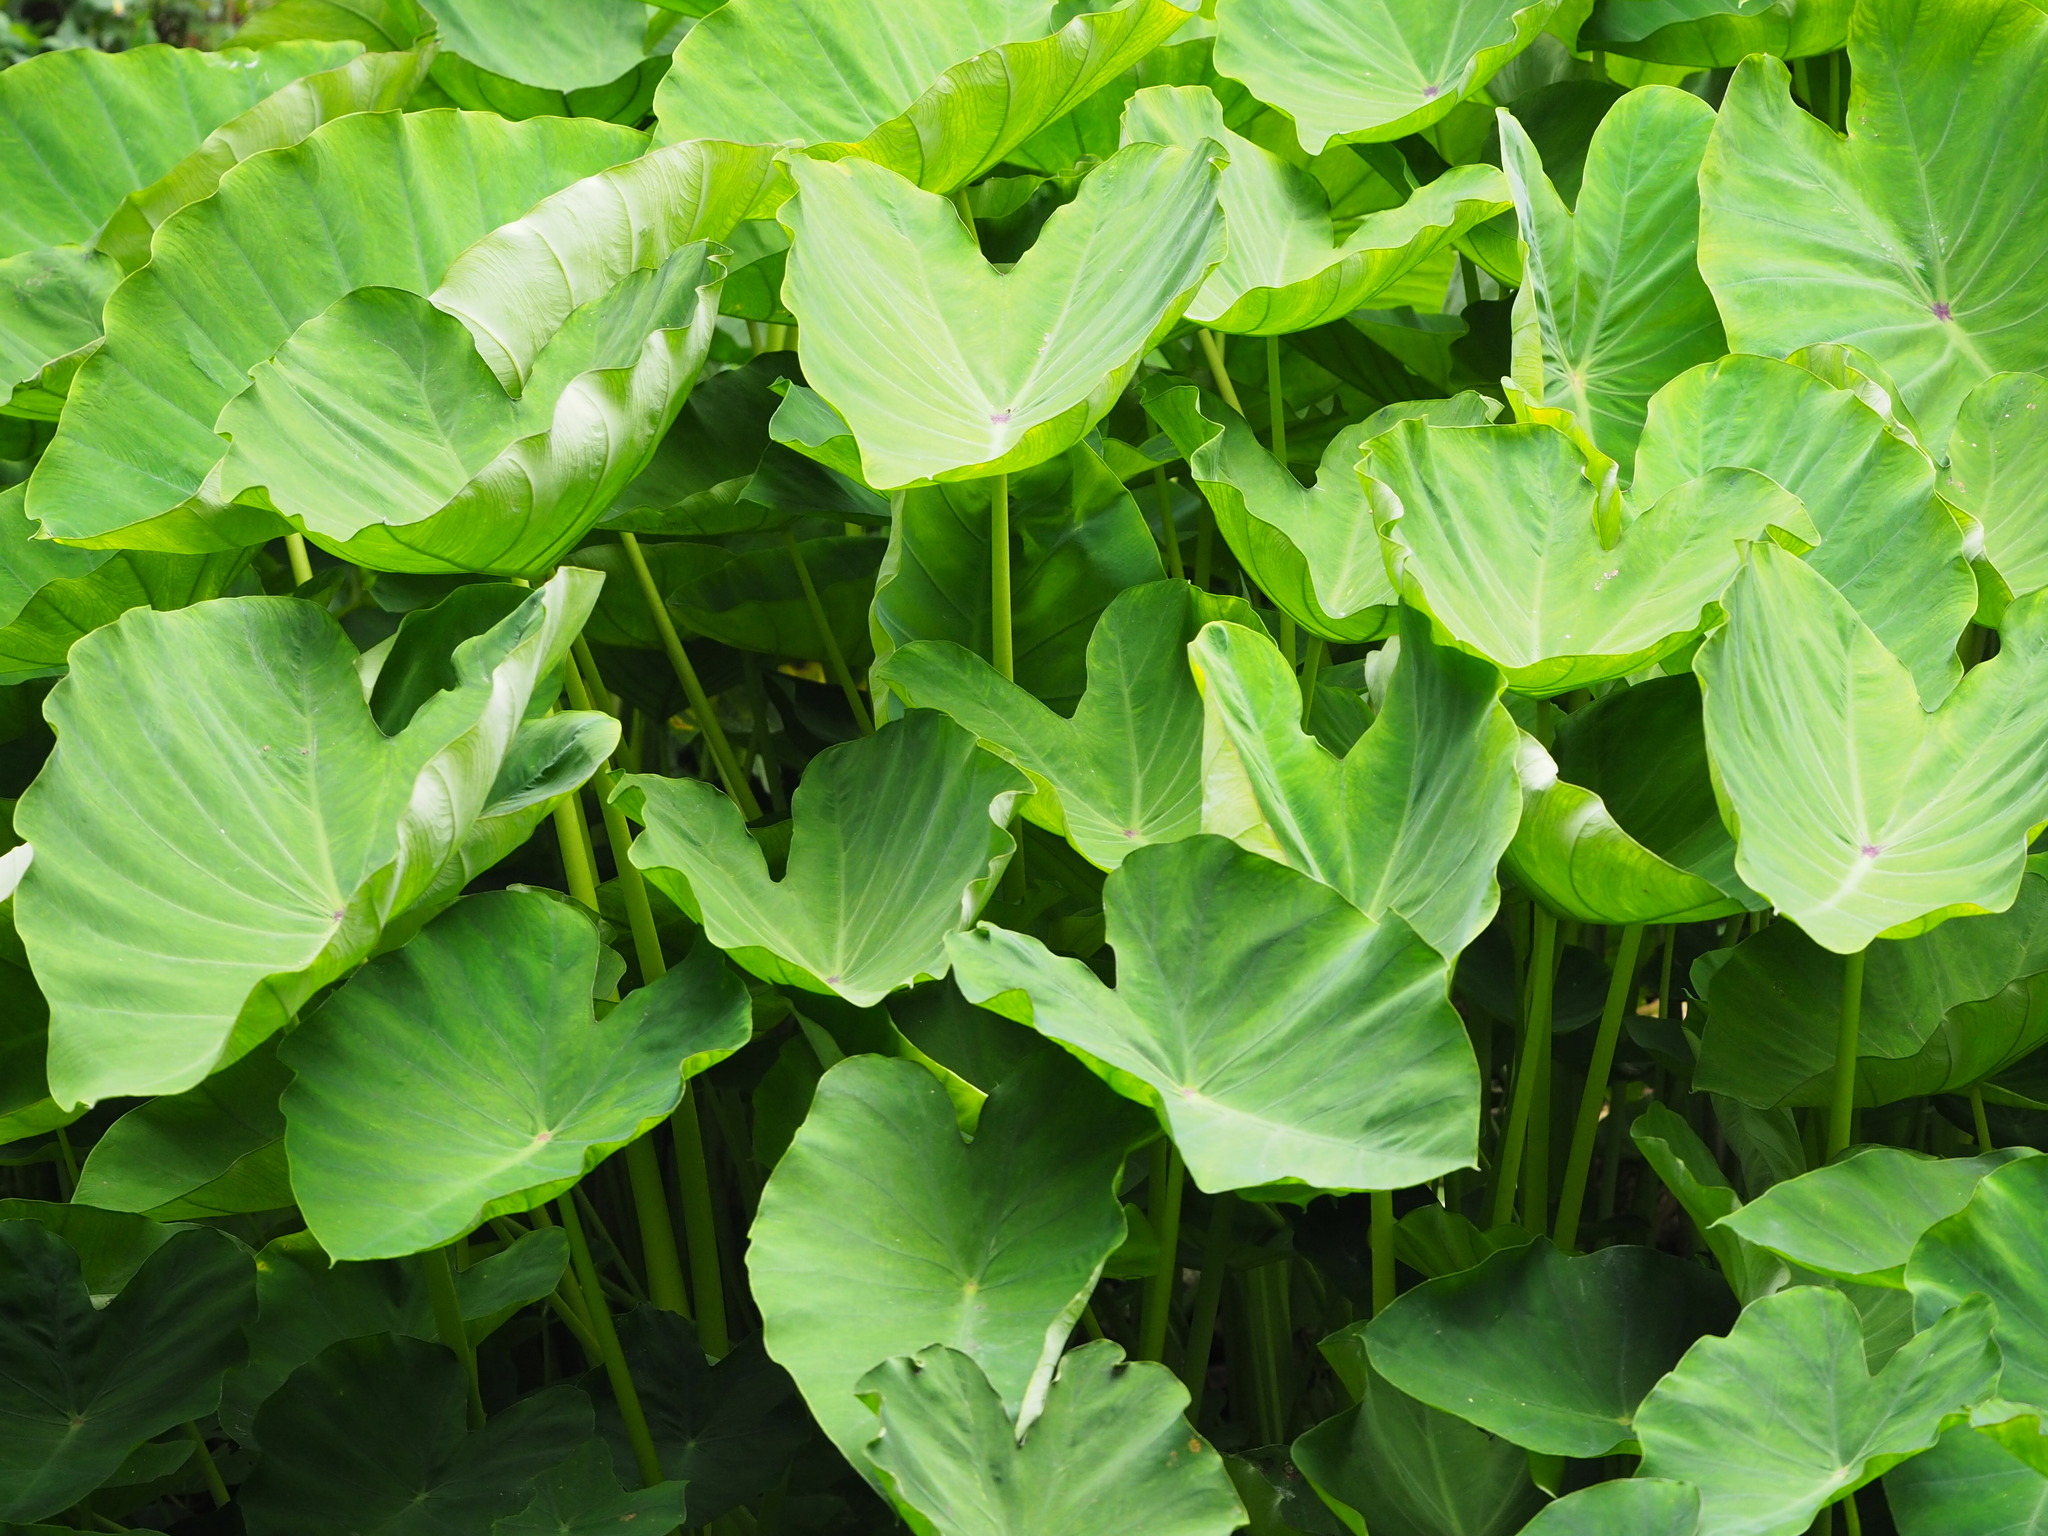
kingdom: Plantae
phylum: Tracheophyta
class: Liliopsida
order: Alismatales
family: Araceae
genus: Colocasia
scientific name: Colocasia esculenta
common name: Taro
